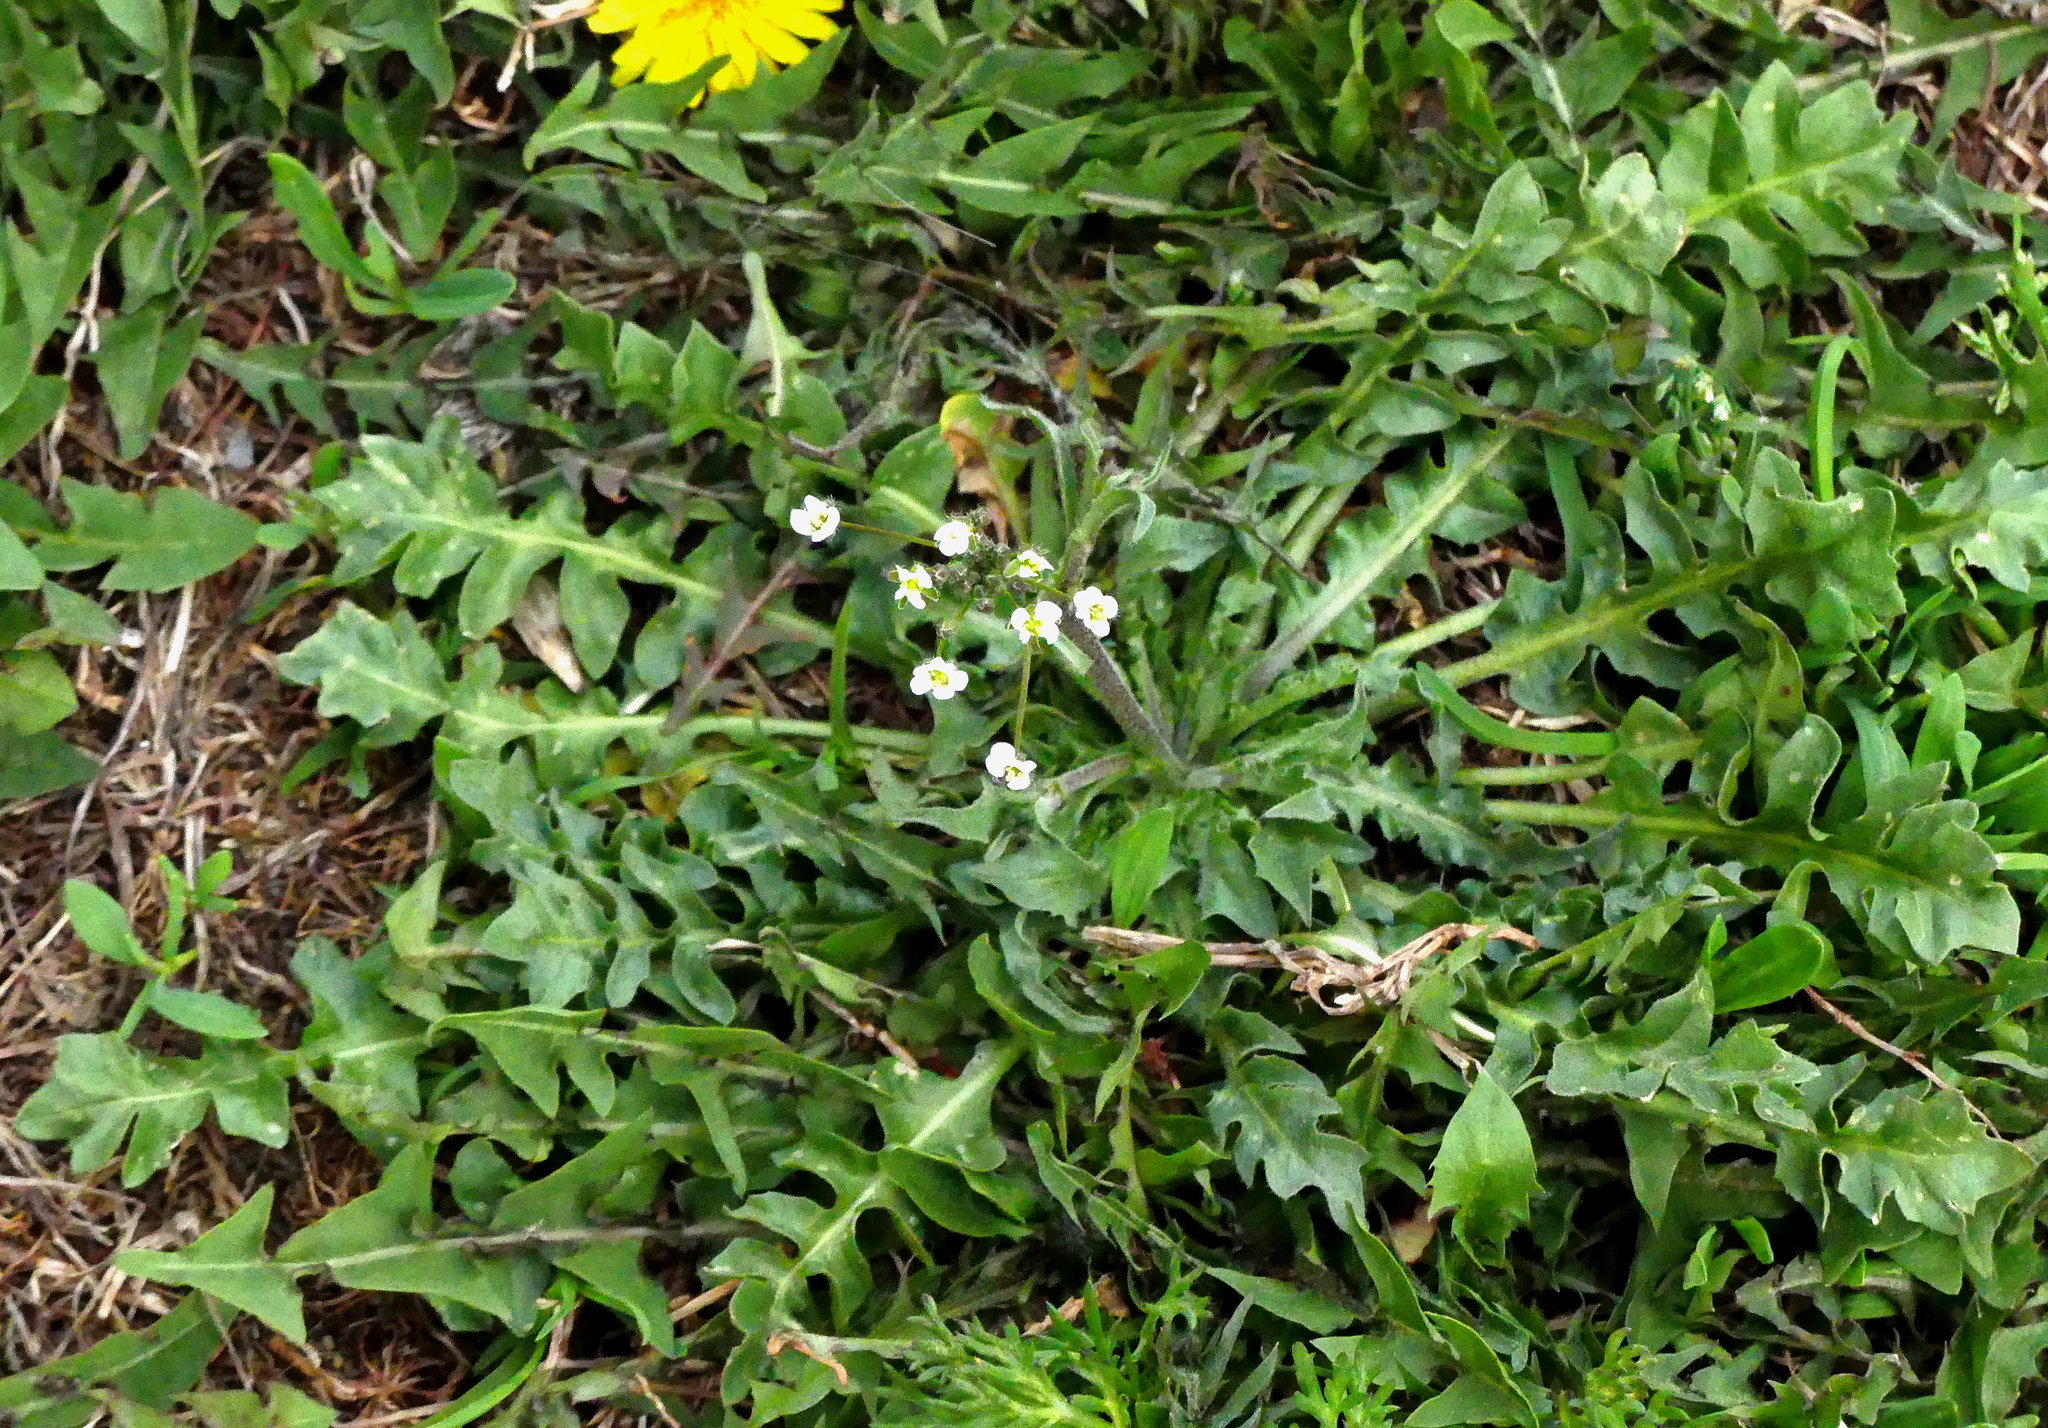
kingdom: Plantae
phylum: Tracheophyta
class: Magnoliopsida
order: Brassicales
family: Brassicaceae
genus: Capsella
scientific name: Capsella bursa-pastoris
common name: Shepherd's purse
